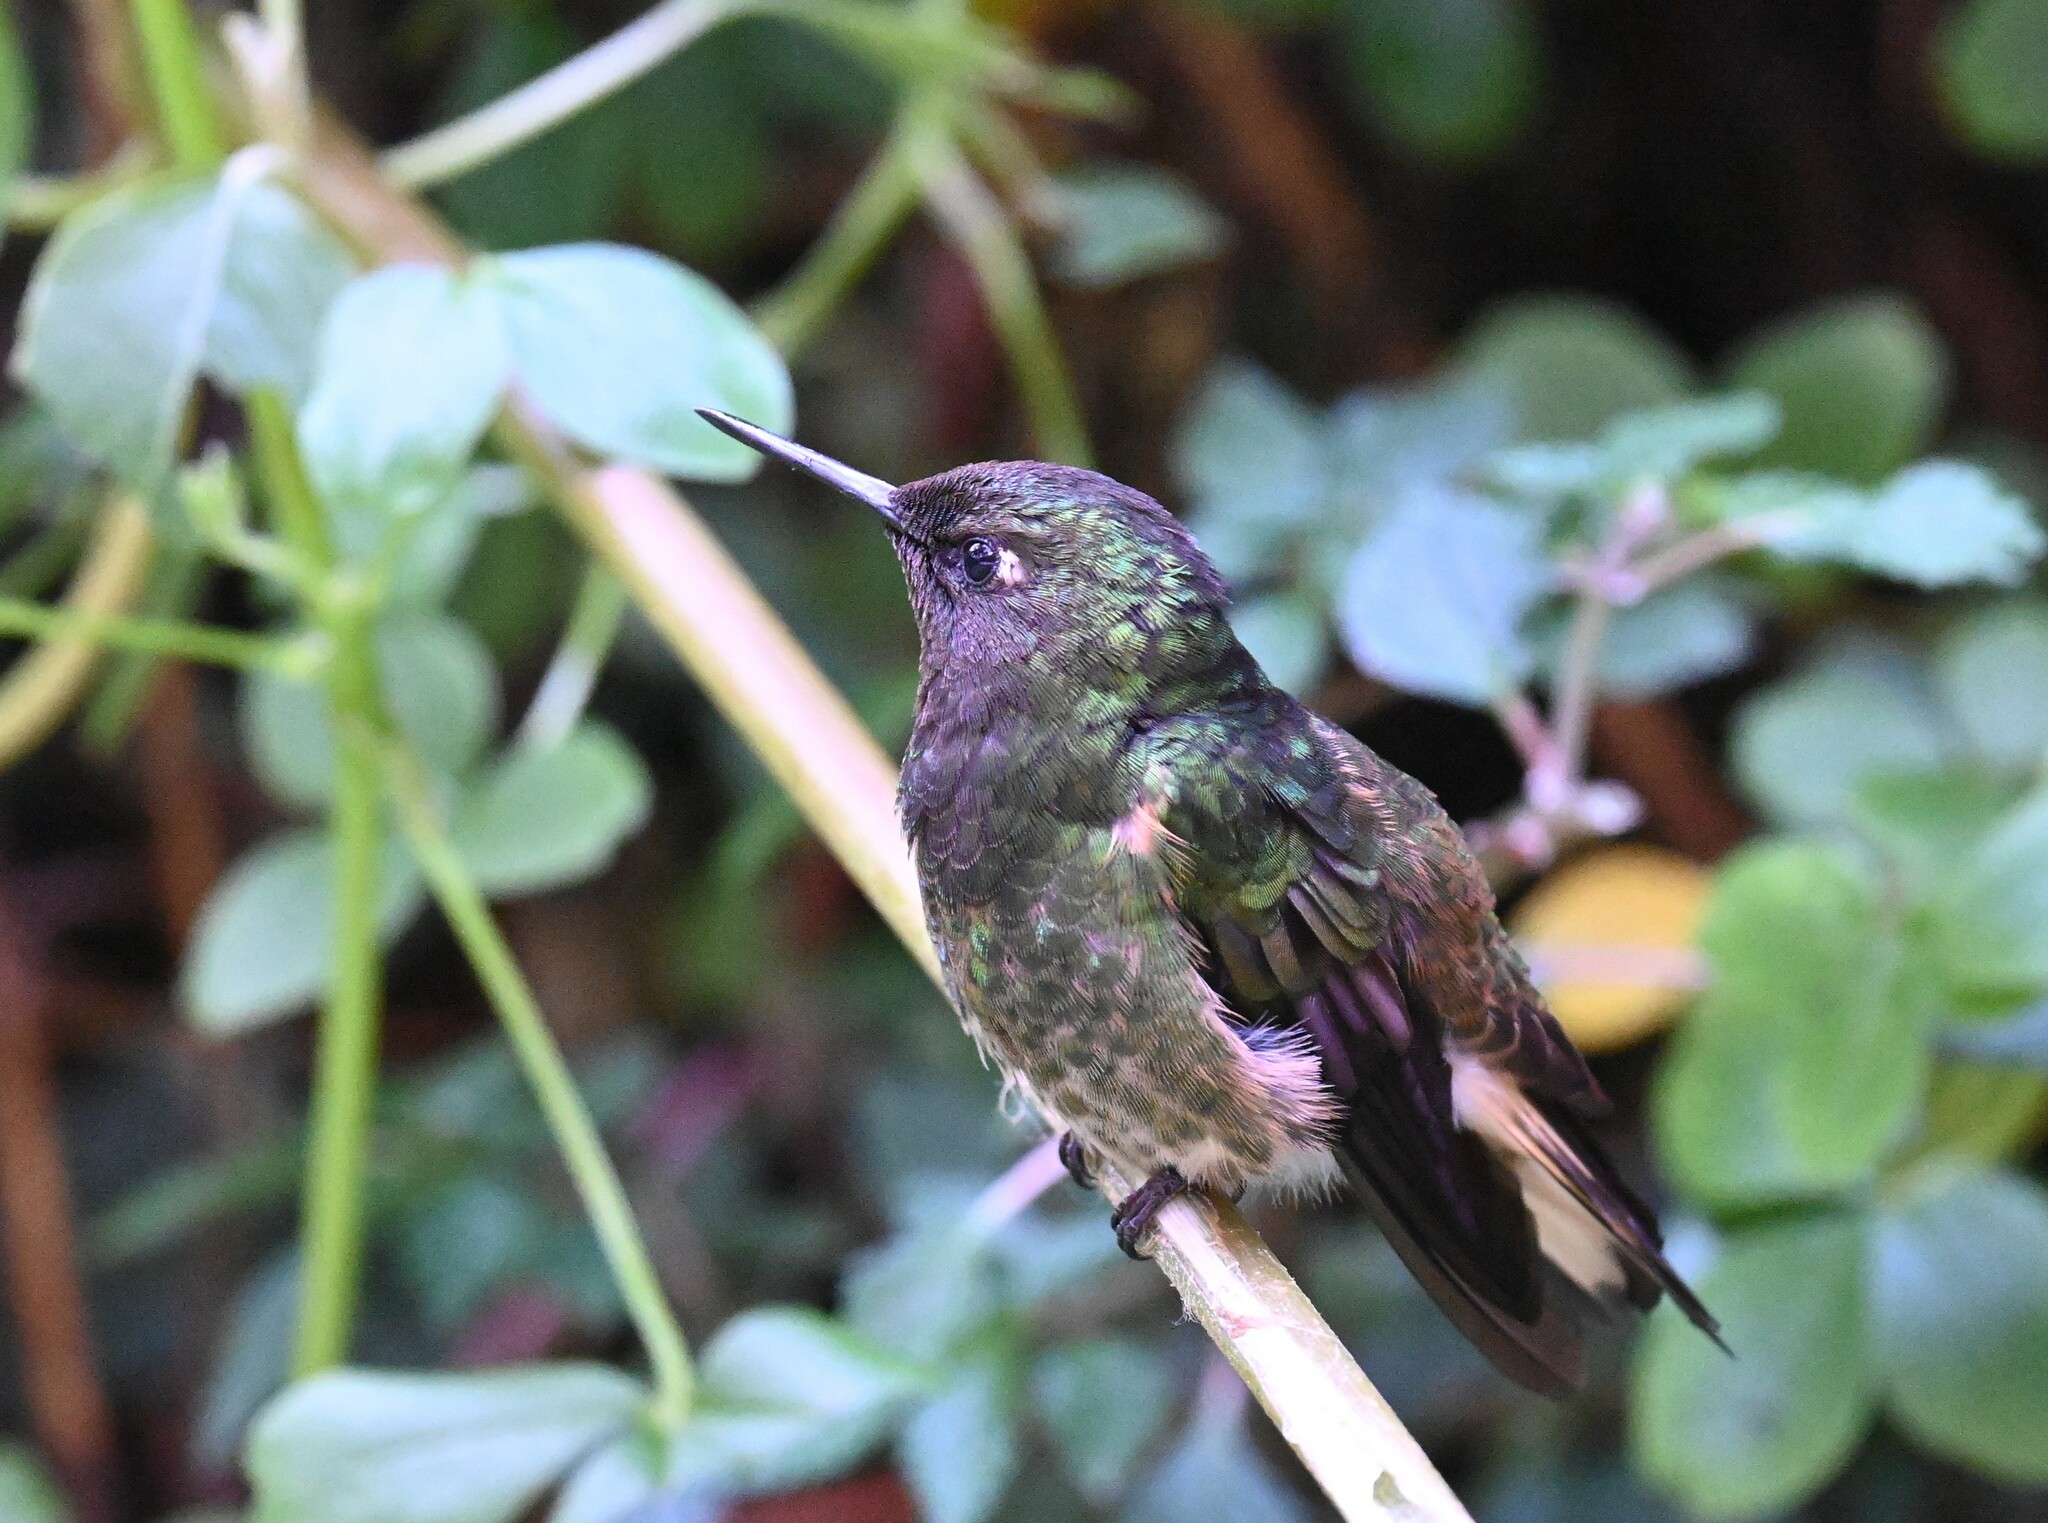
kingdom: Animalia
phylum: Chordata
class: Aves
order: Apodiformes
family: Trochilidae
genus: Boissonneaua
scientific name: Boissonneaua flavescens
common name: Buff-tailed coronet
